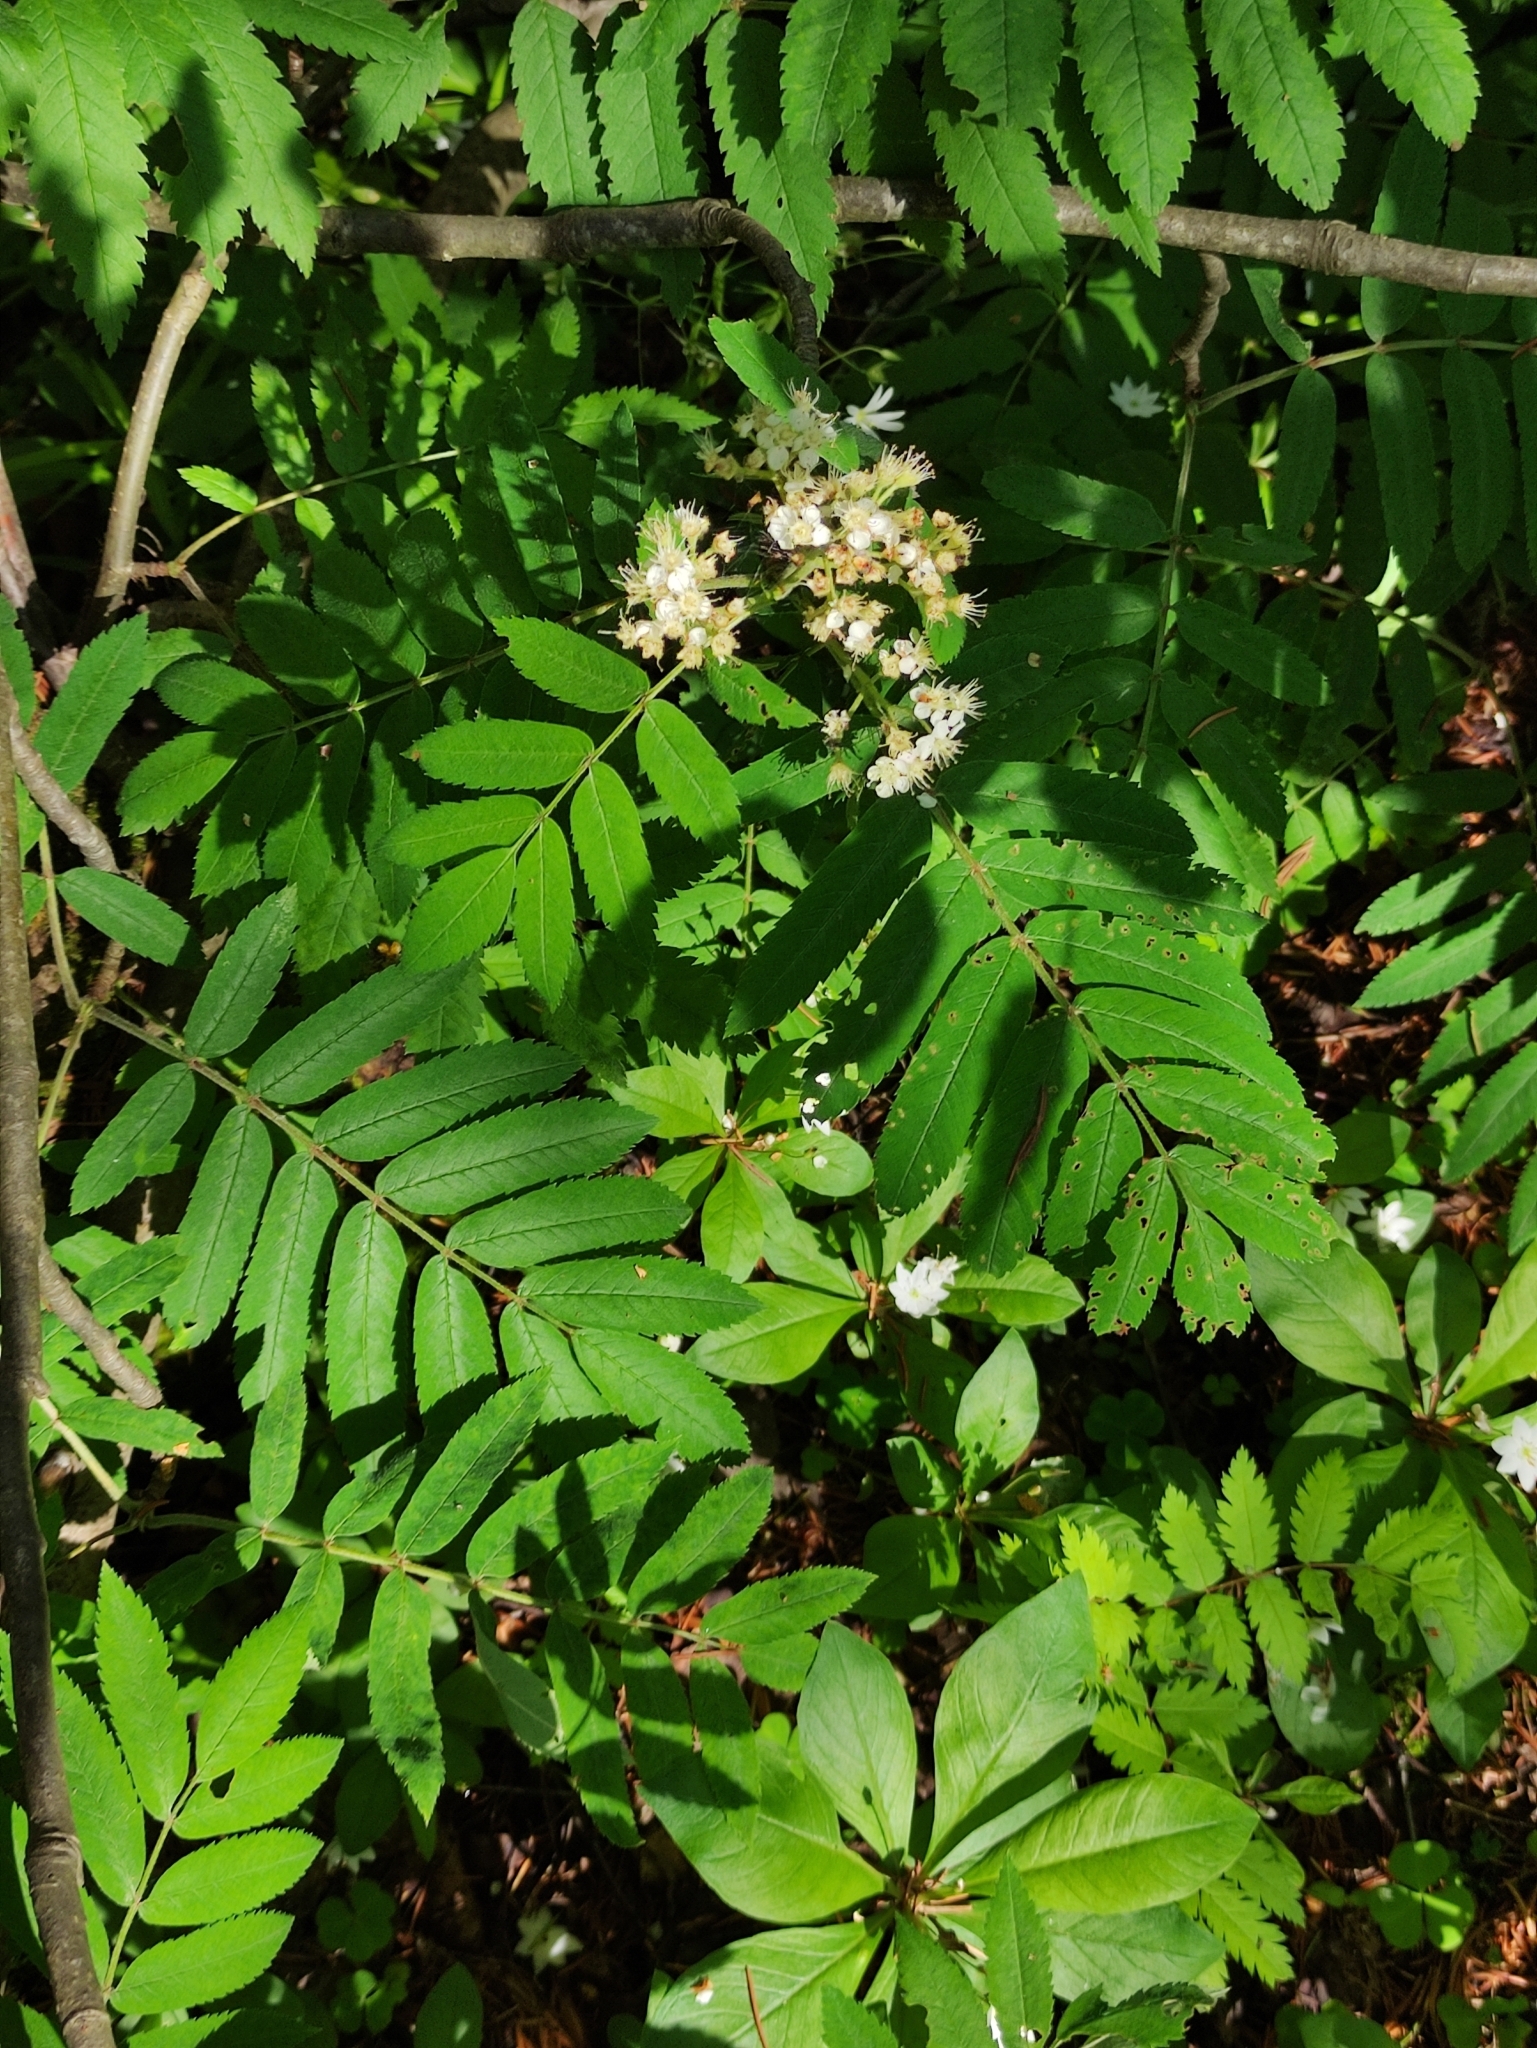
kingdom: Plantae
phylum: Tracheophyta
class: Magnoliopsida
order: Rosales
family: Rosaceae
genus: Sorbus
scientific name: Sorbus aucuparia
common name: Rowan
